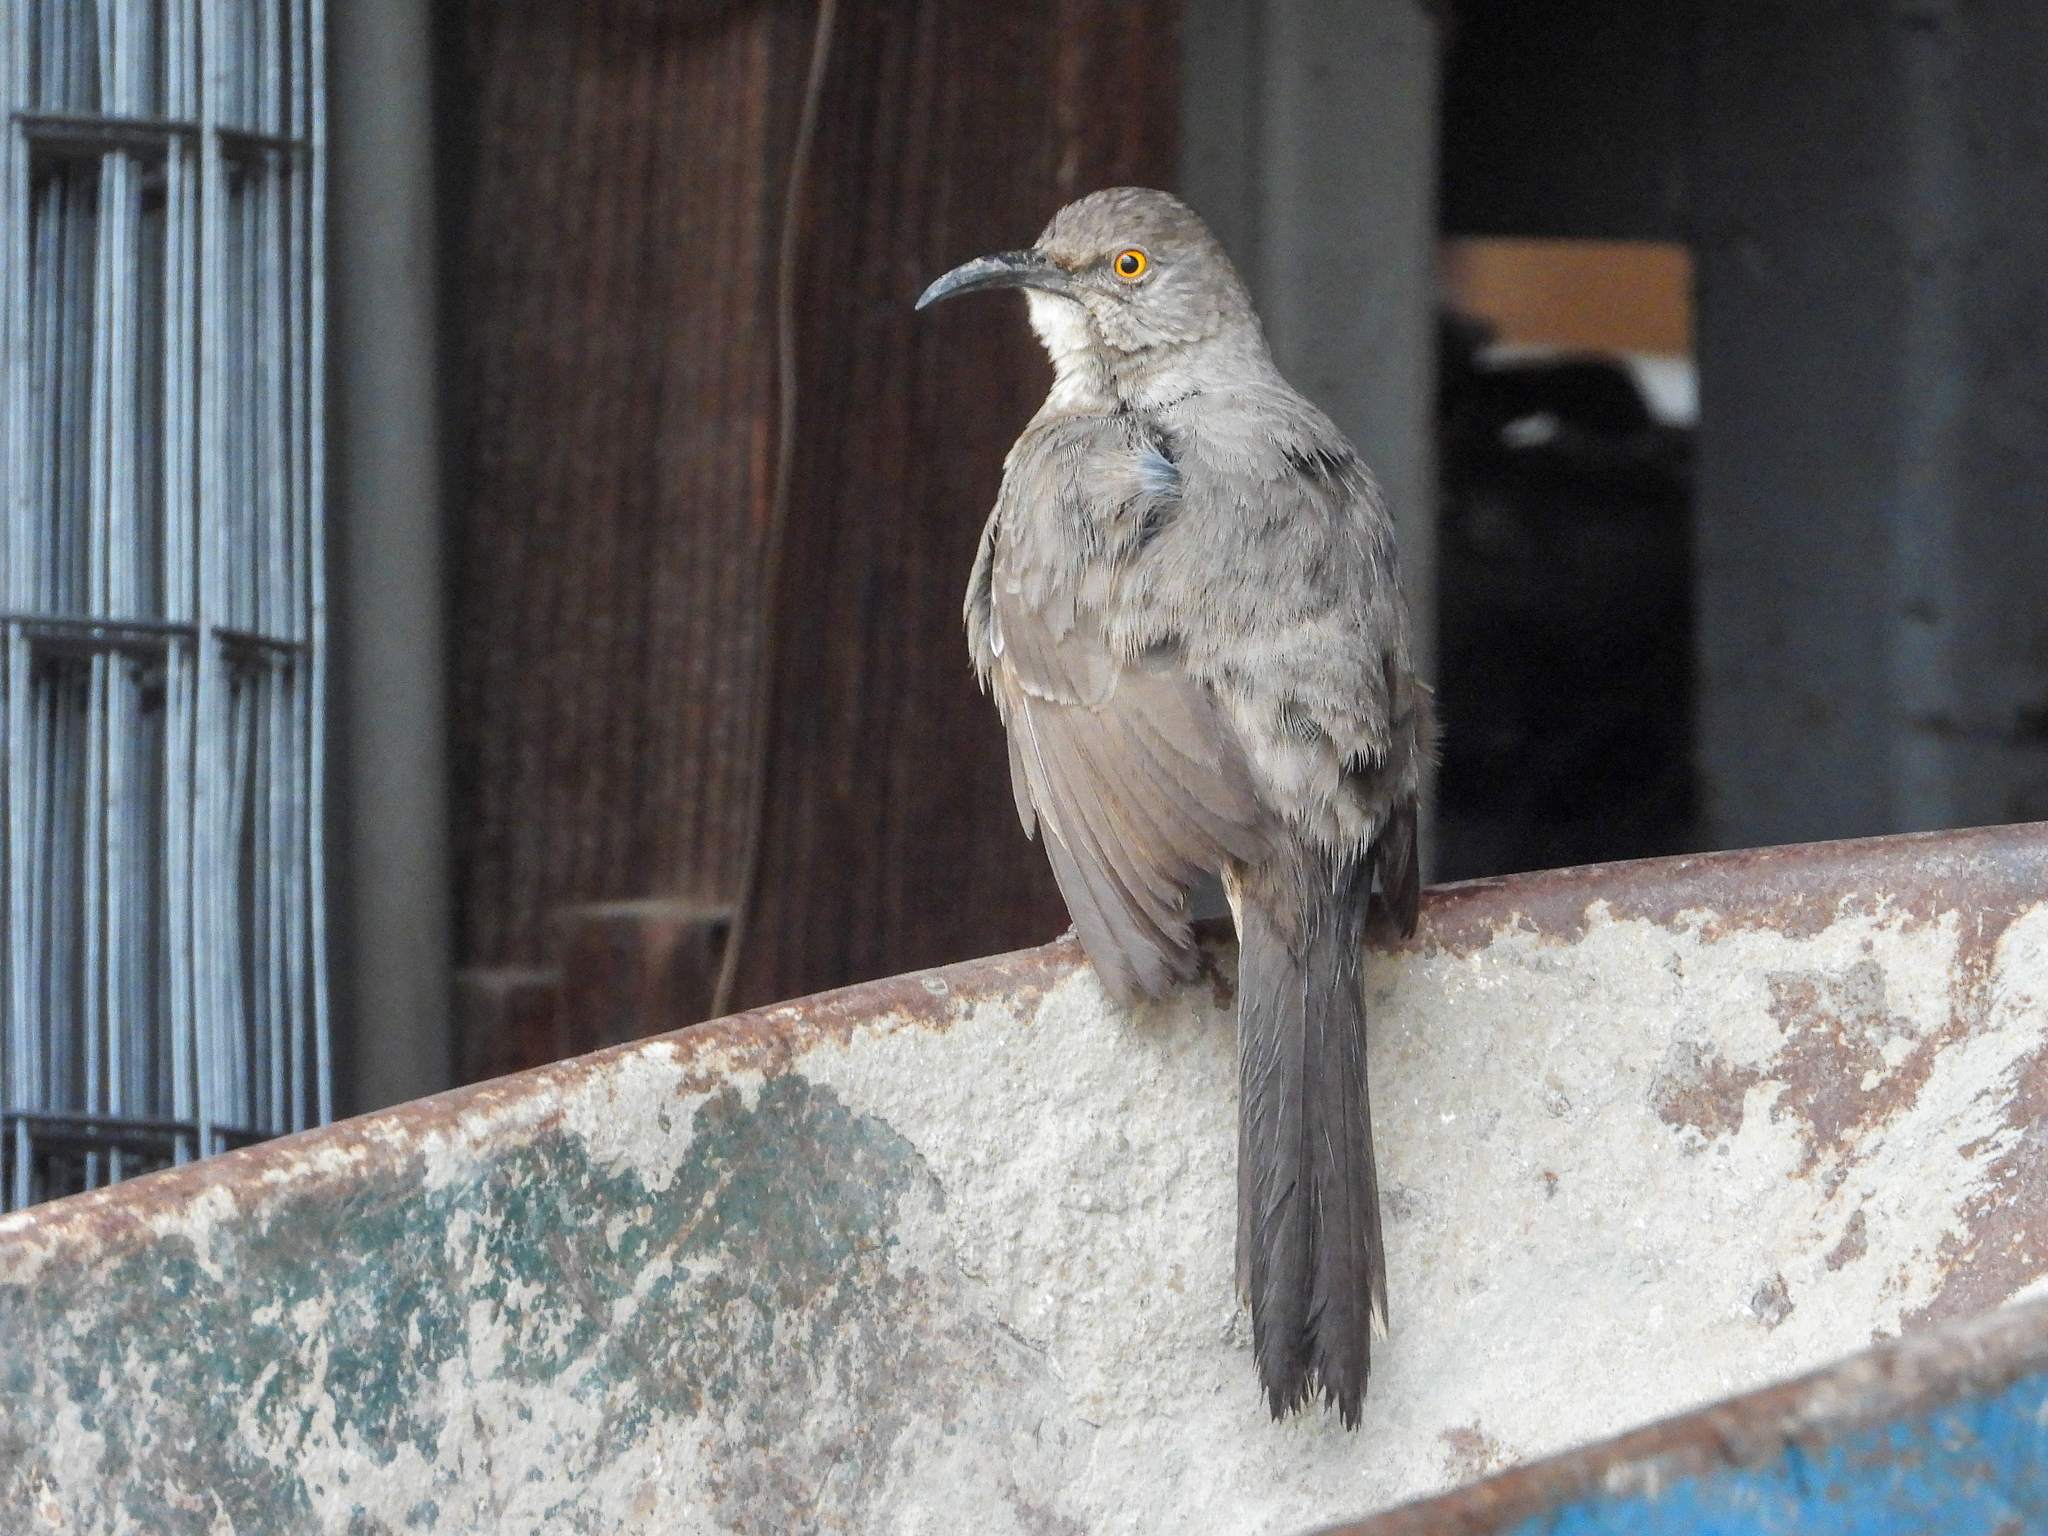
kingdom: Animalia
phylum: Chordata
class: Aves
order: Passeriformes
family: Mimidae
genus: Toxostoma
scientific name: Toxostoma curvirostre
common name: Curve-billed thrasher
